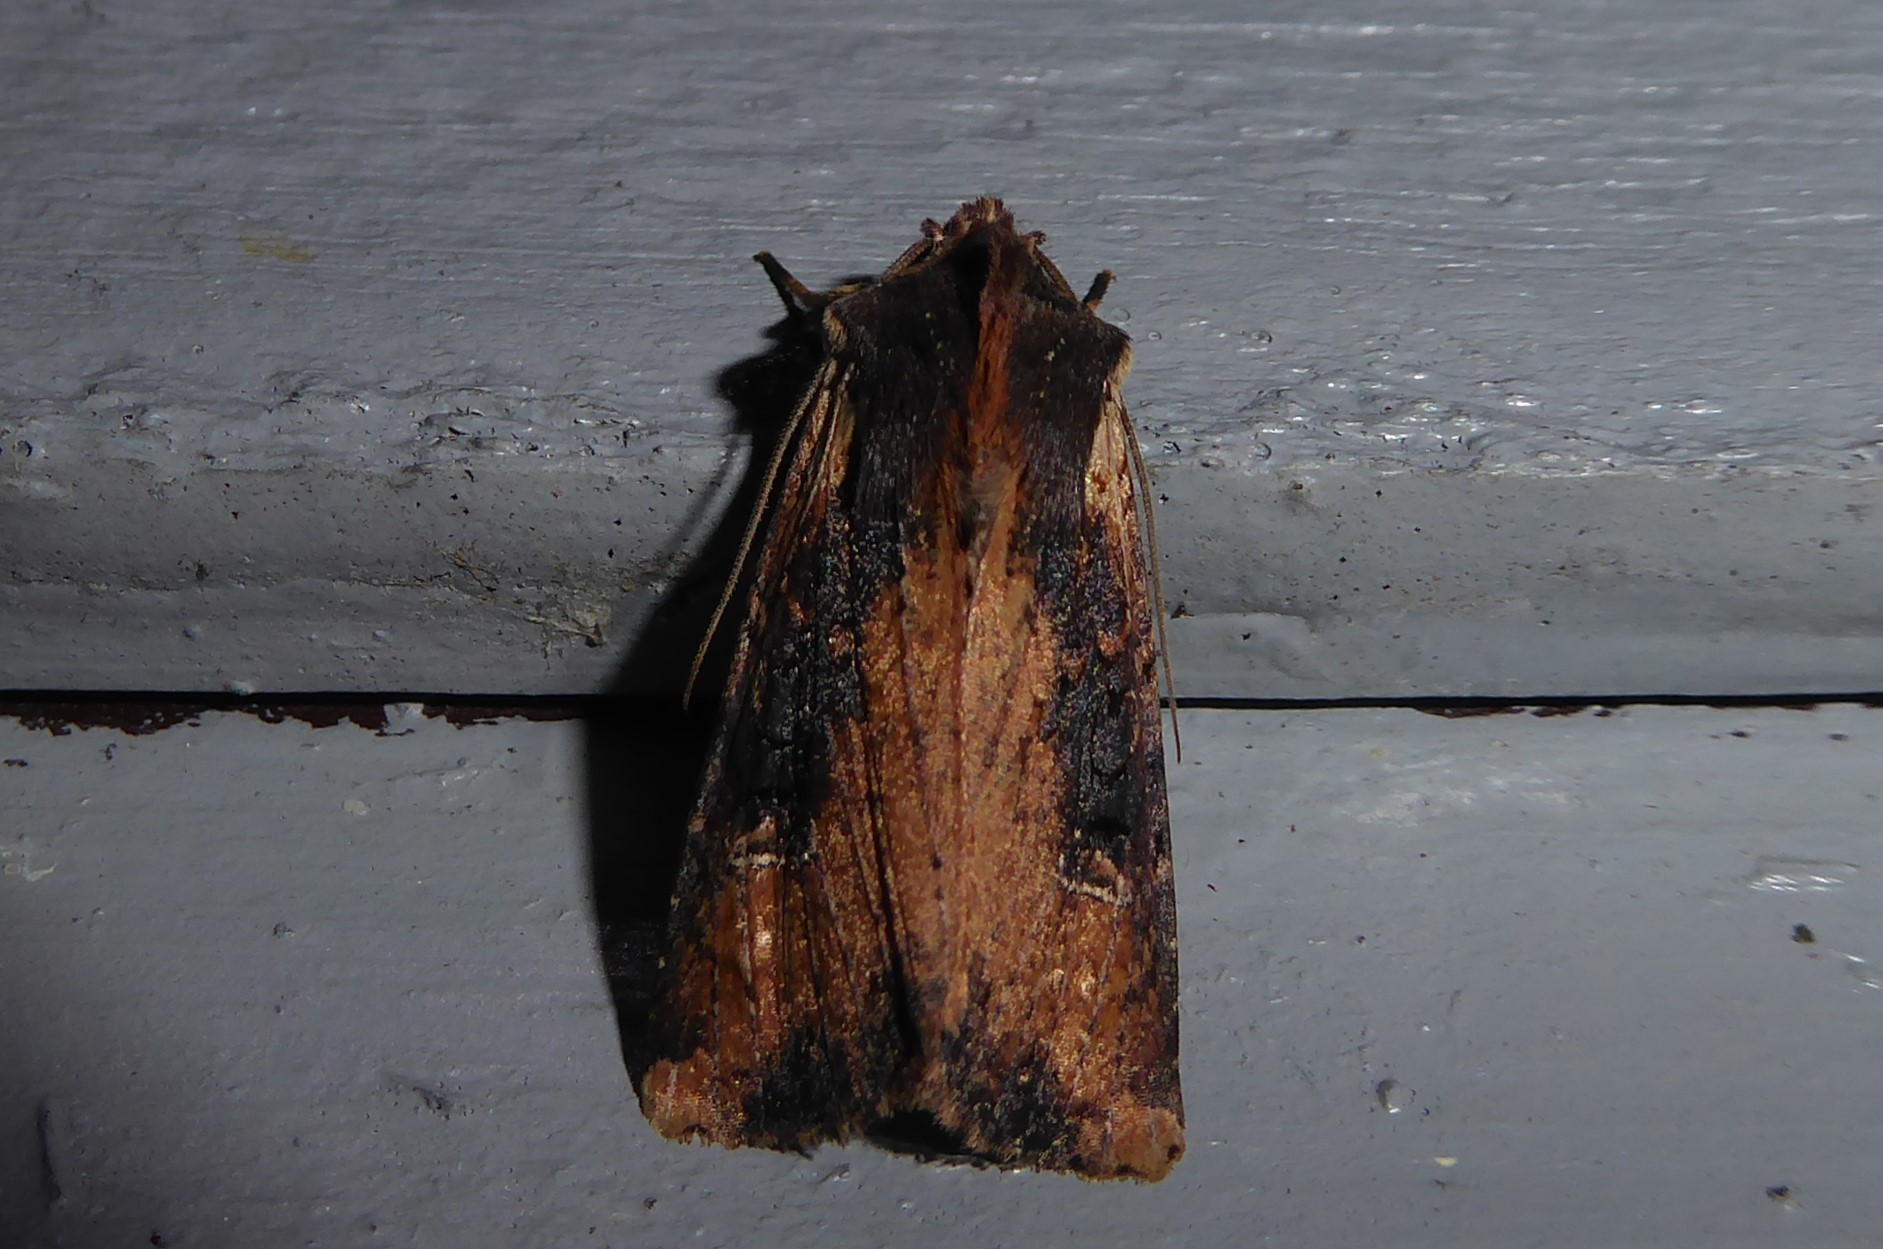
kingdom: Animalia
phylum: Arthropoda
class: Insecta
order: Lepidoptera
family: Noctuidae
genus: Ichneutica
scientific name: Ichneutica omoplaca
